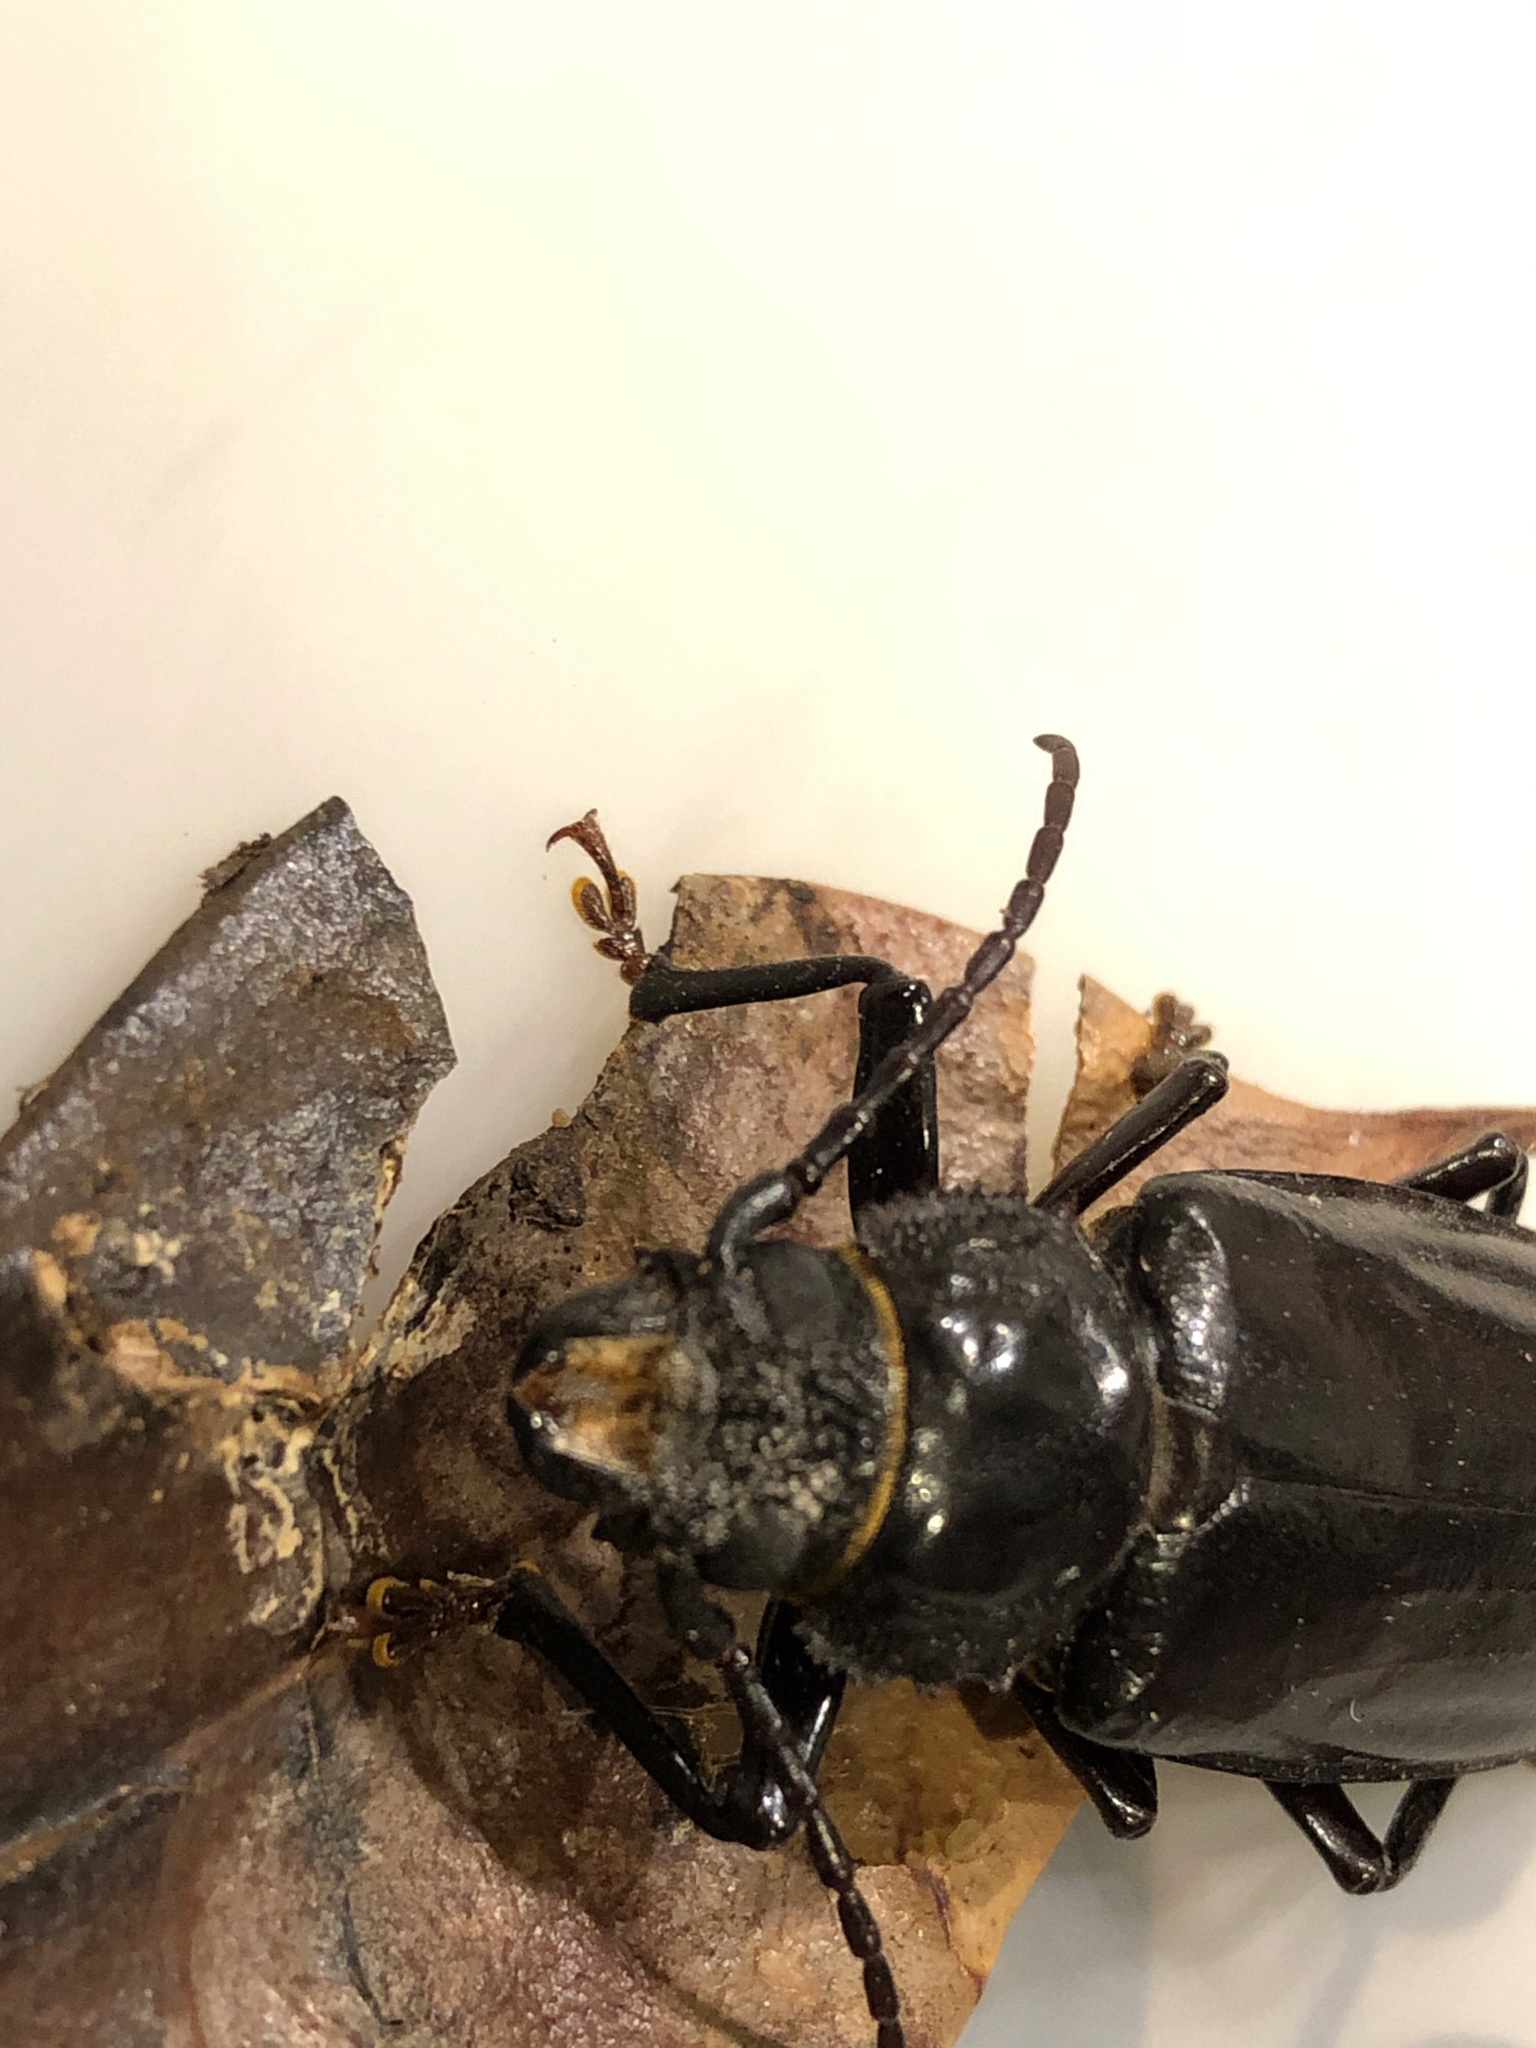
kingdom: Animalia
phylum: Arthropoda
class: Insecta
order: Coleoptera
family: Cerambycidae
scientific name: Cerambycidae
